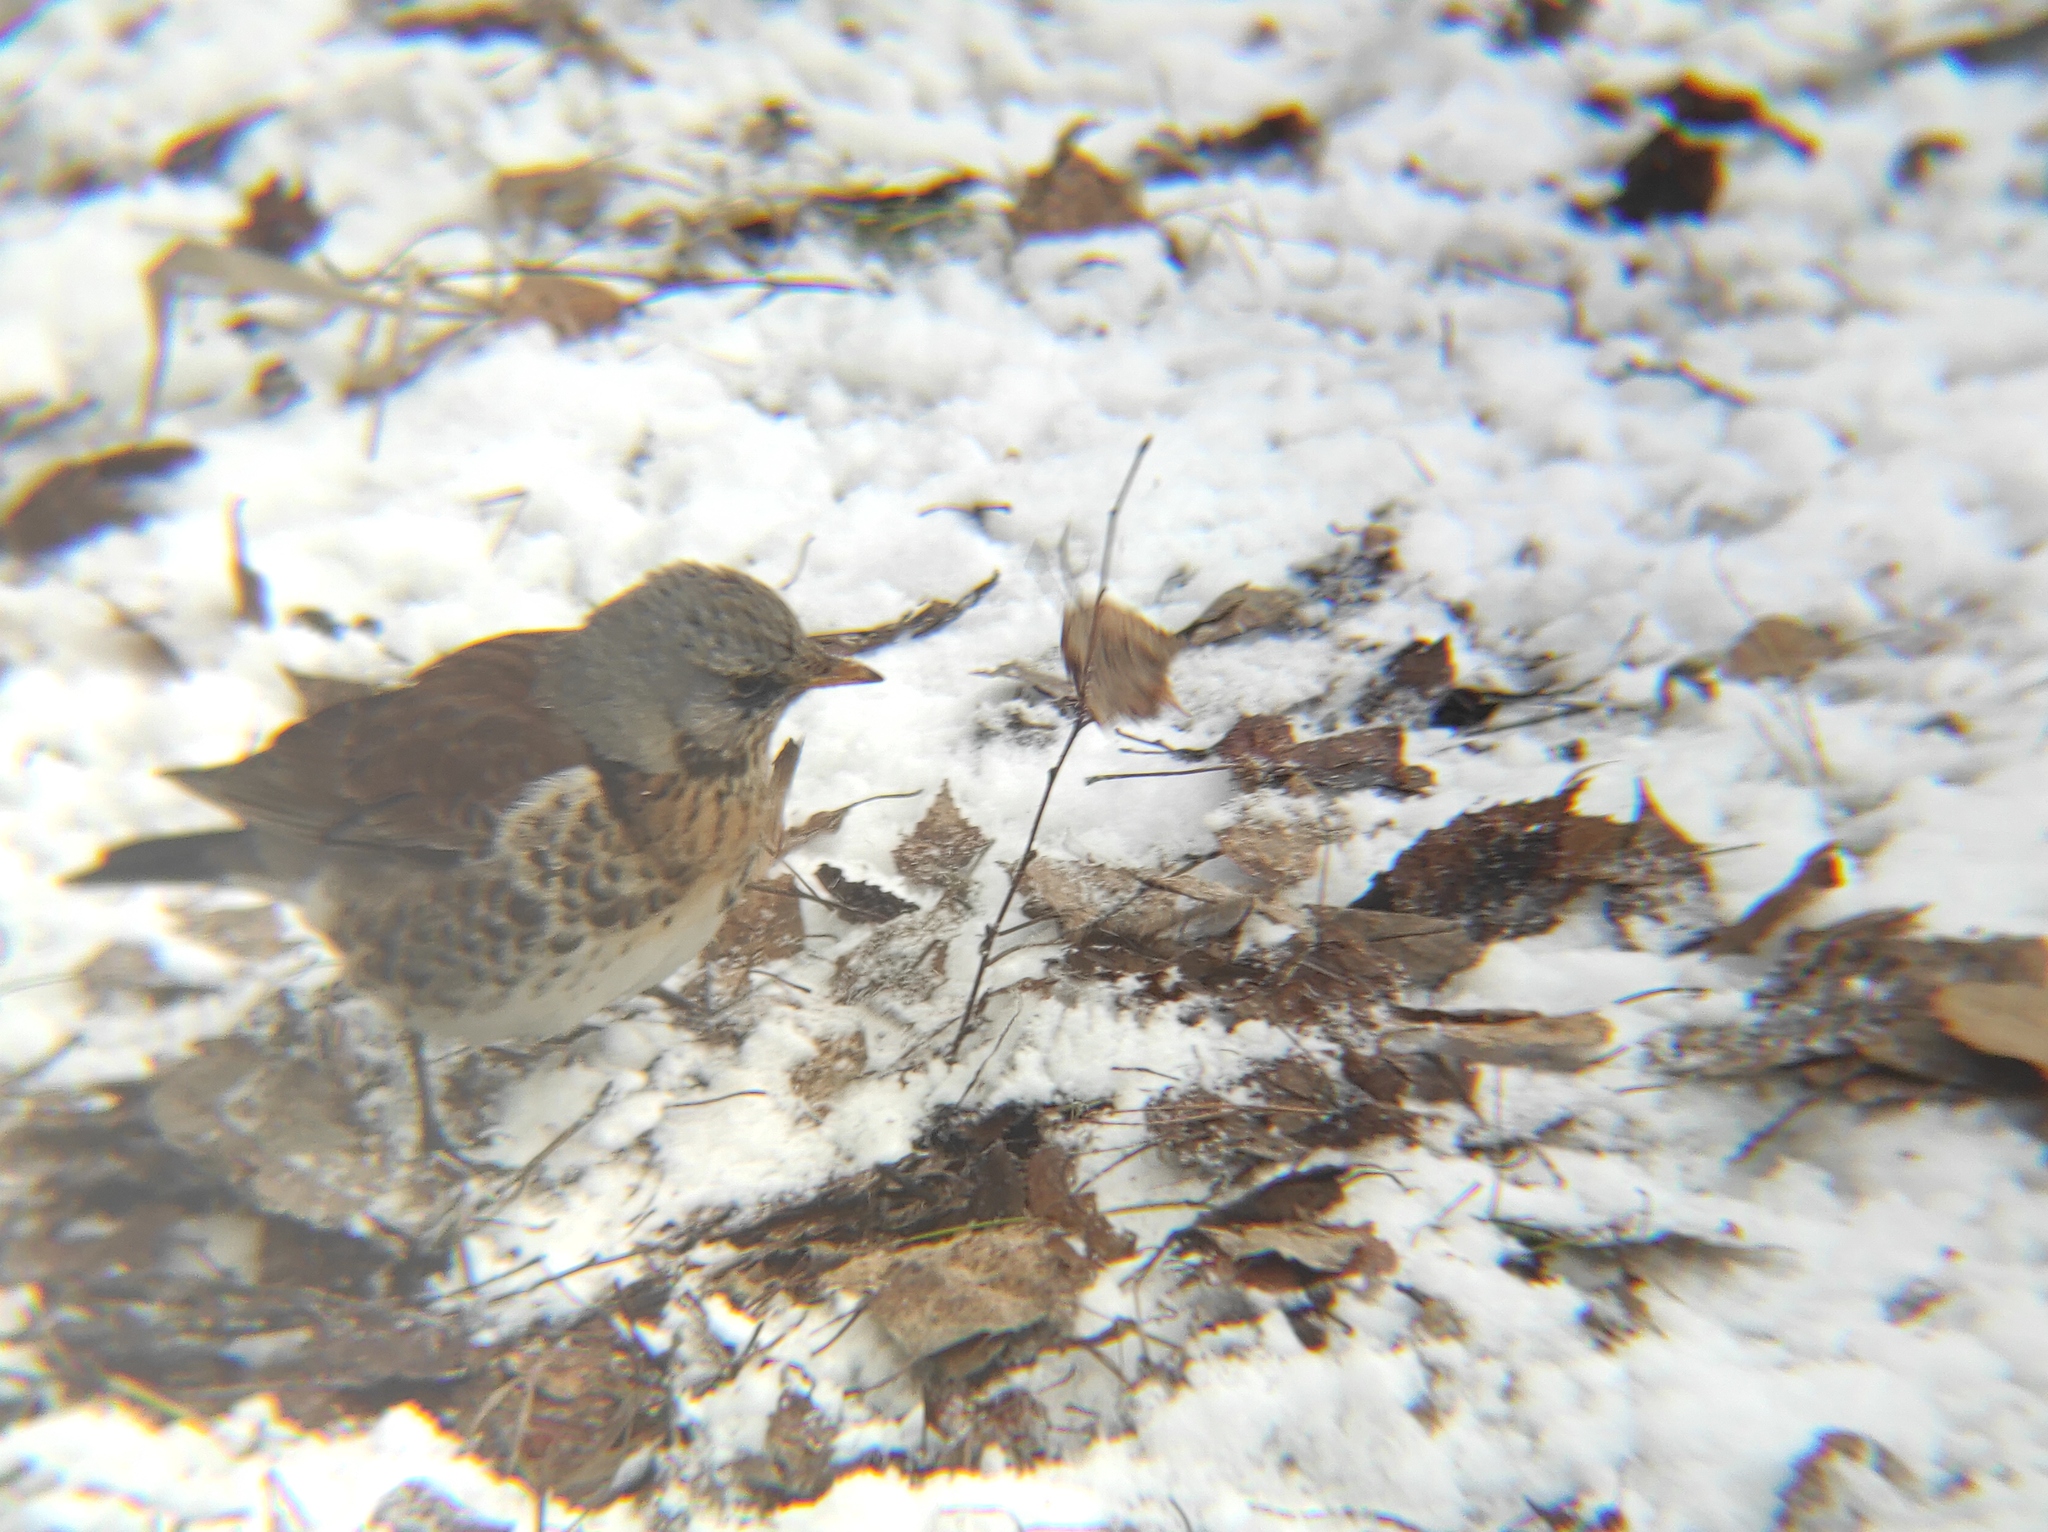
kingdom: Animalia
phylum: Chordata
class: Aves
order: Passeriformes
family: Turdidae
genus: Turdus
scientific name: Turdus pilaris
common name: Fieldfare
